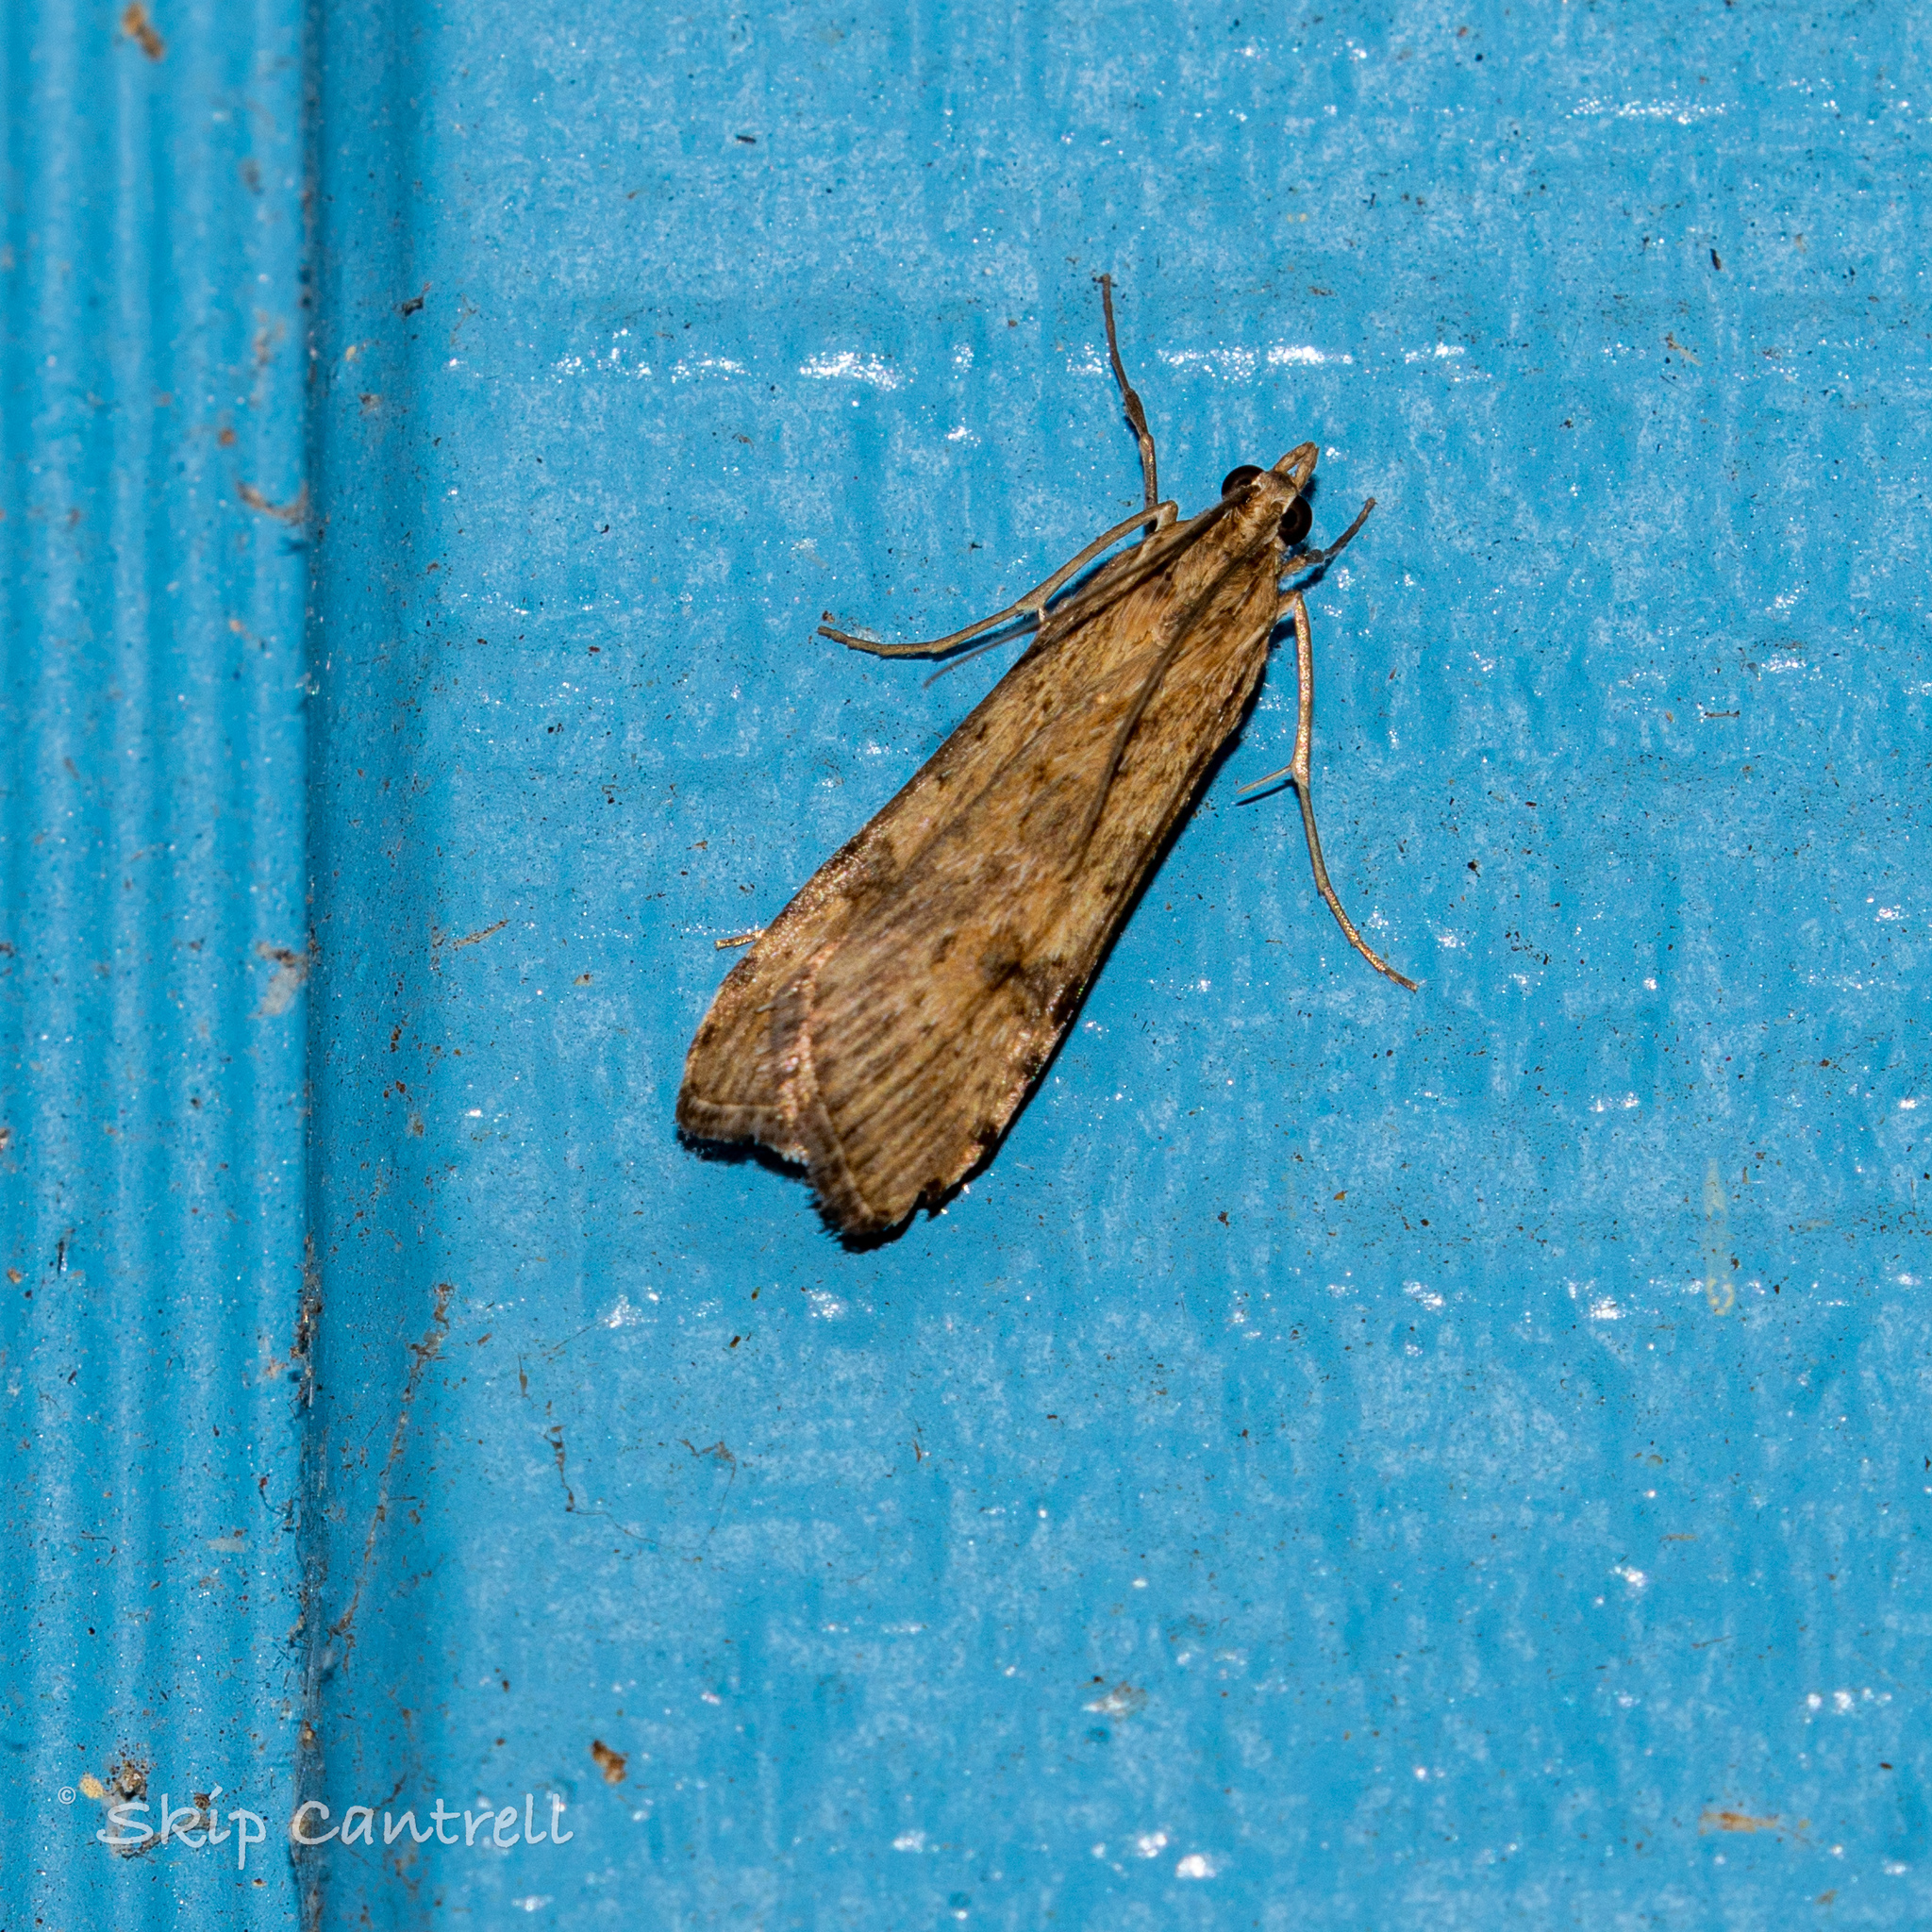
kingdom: Animalia
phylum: Arthropoda
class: Insecta
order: Lepidoptera
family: Crambidae
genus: Nomophila
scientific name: Nomophila nearctica
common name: American rush veneer
